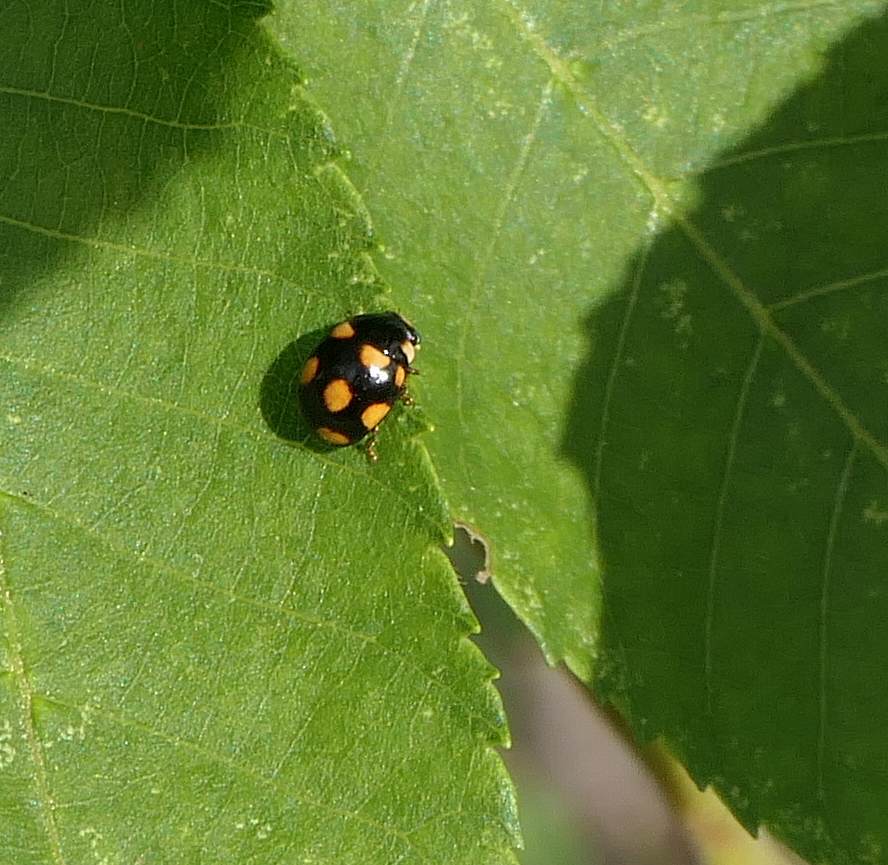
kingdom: Animalia
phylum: Arthropoda
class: Insecta
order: Coleoptera
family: Coccinellidae
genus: Brachiacantha
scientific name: Brachiacantha ursina
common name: Ursine spurleg lady beetle
